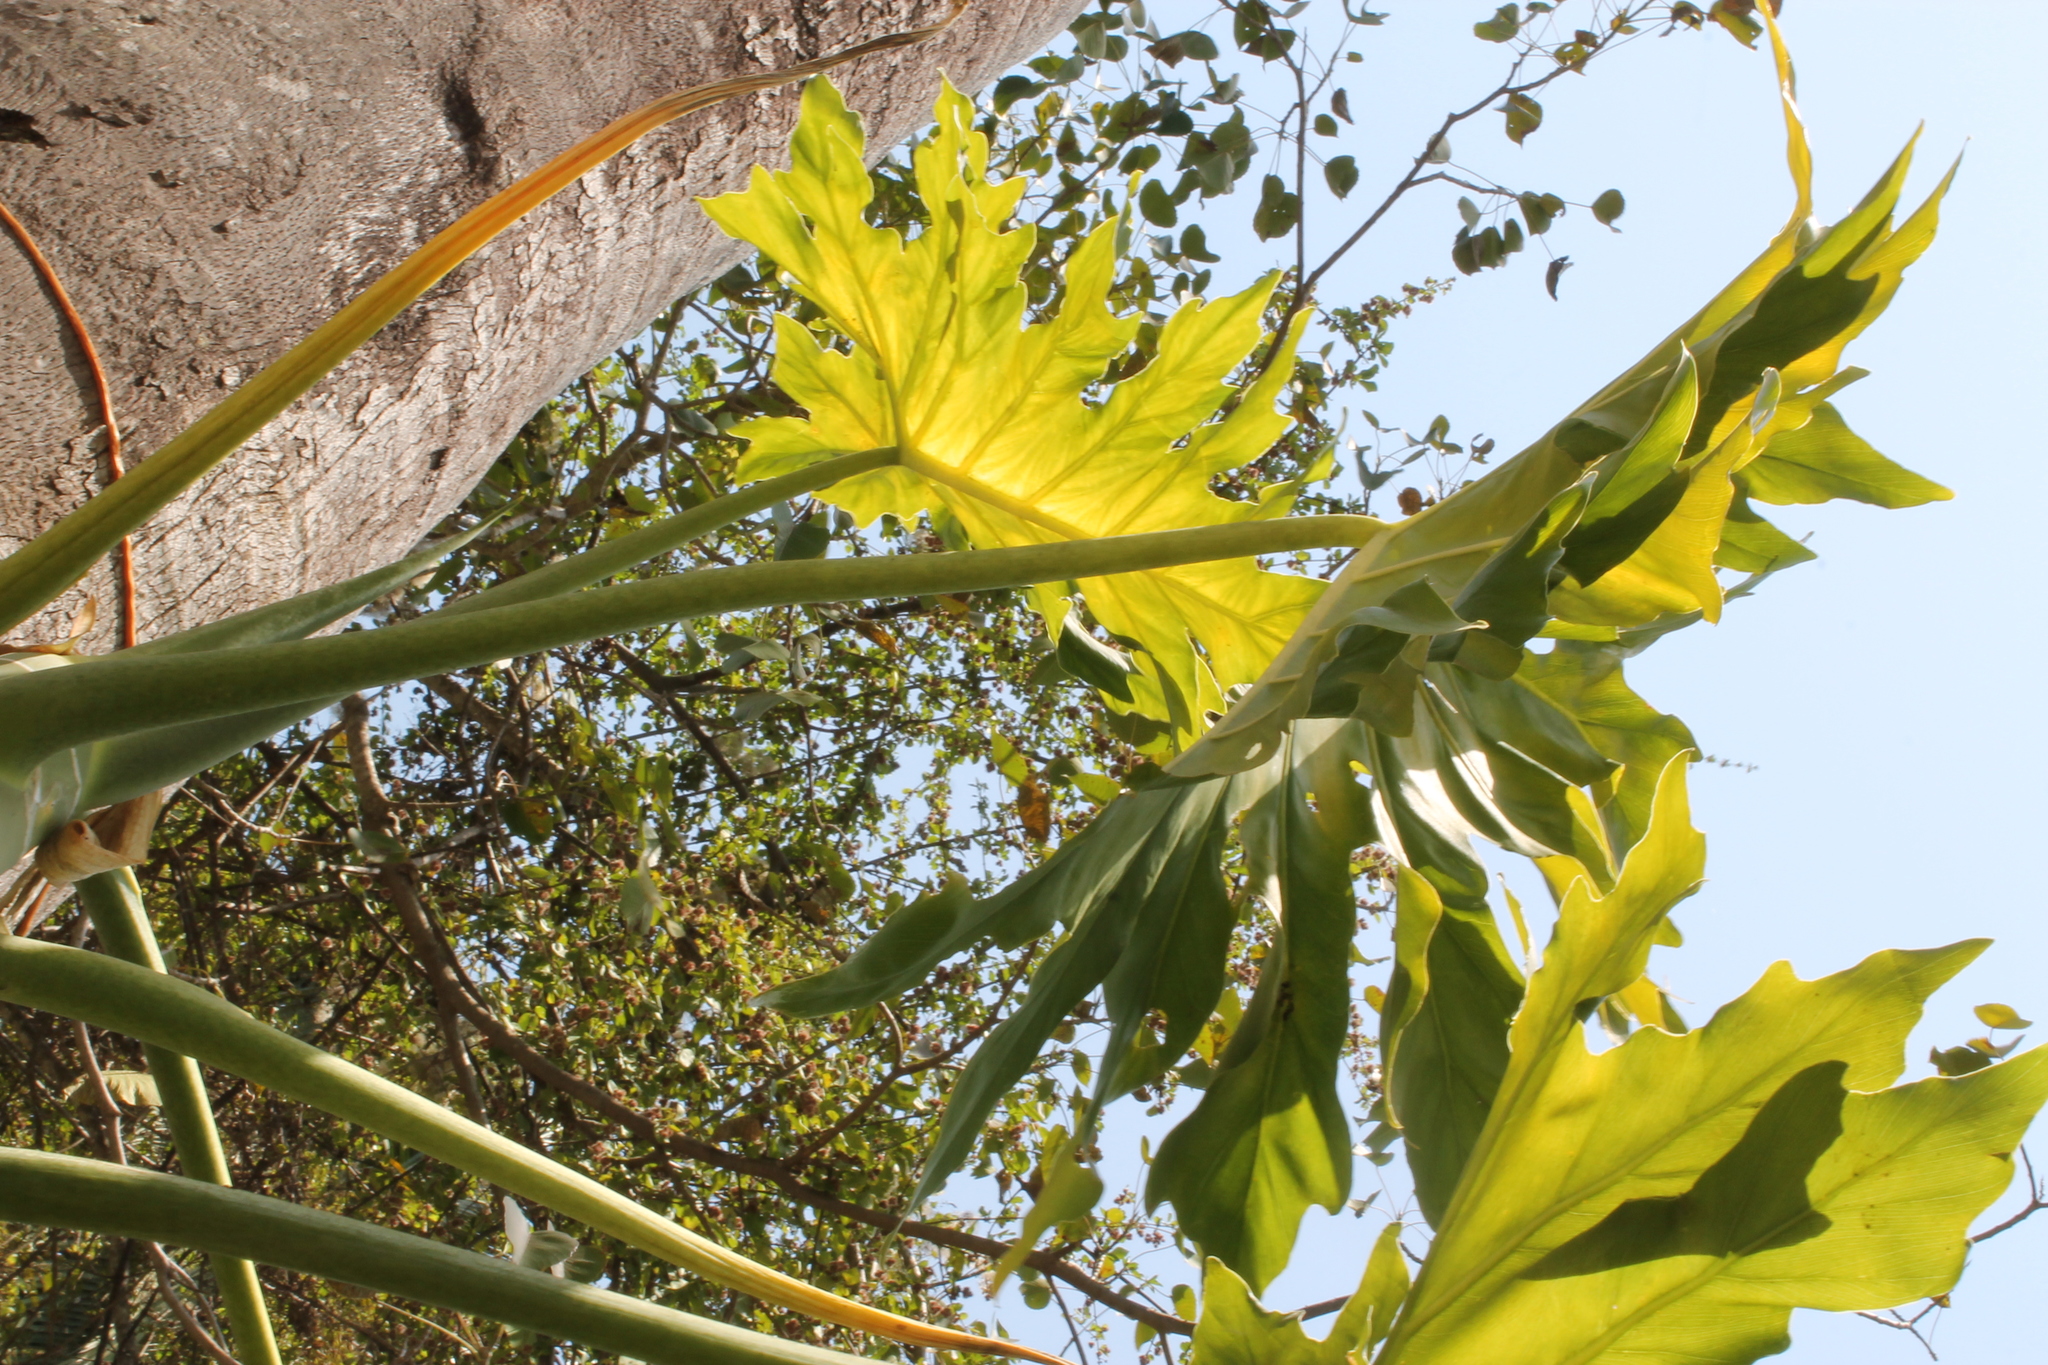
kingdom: Plantae
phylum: Tracheophyta
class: Liliopsida
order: Alismatales
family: Araceae
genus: Philodendron
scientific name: Philodendron dressleri
